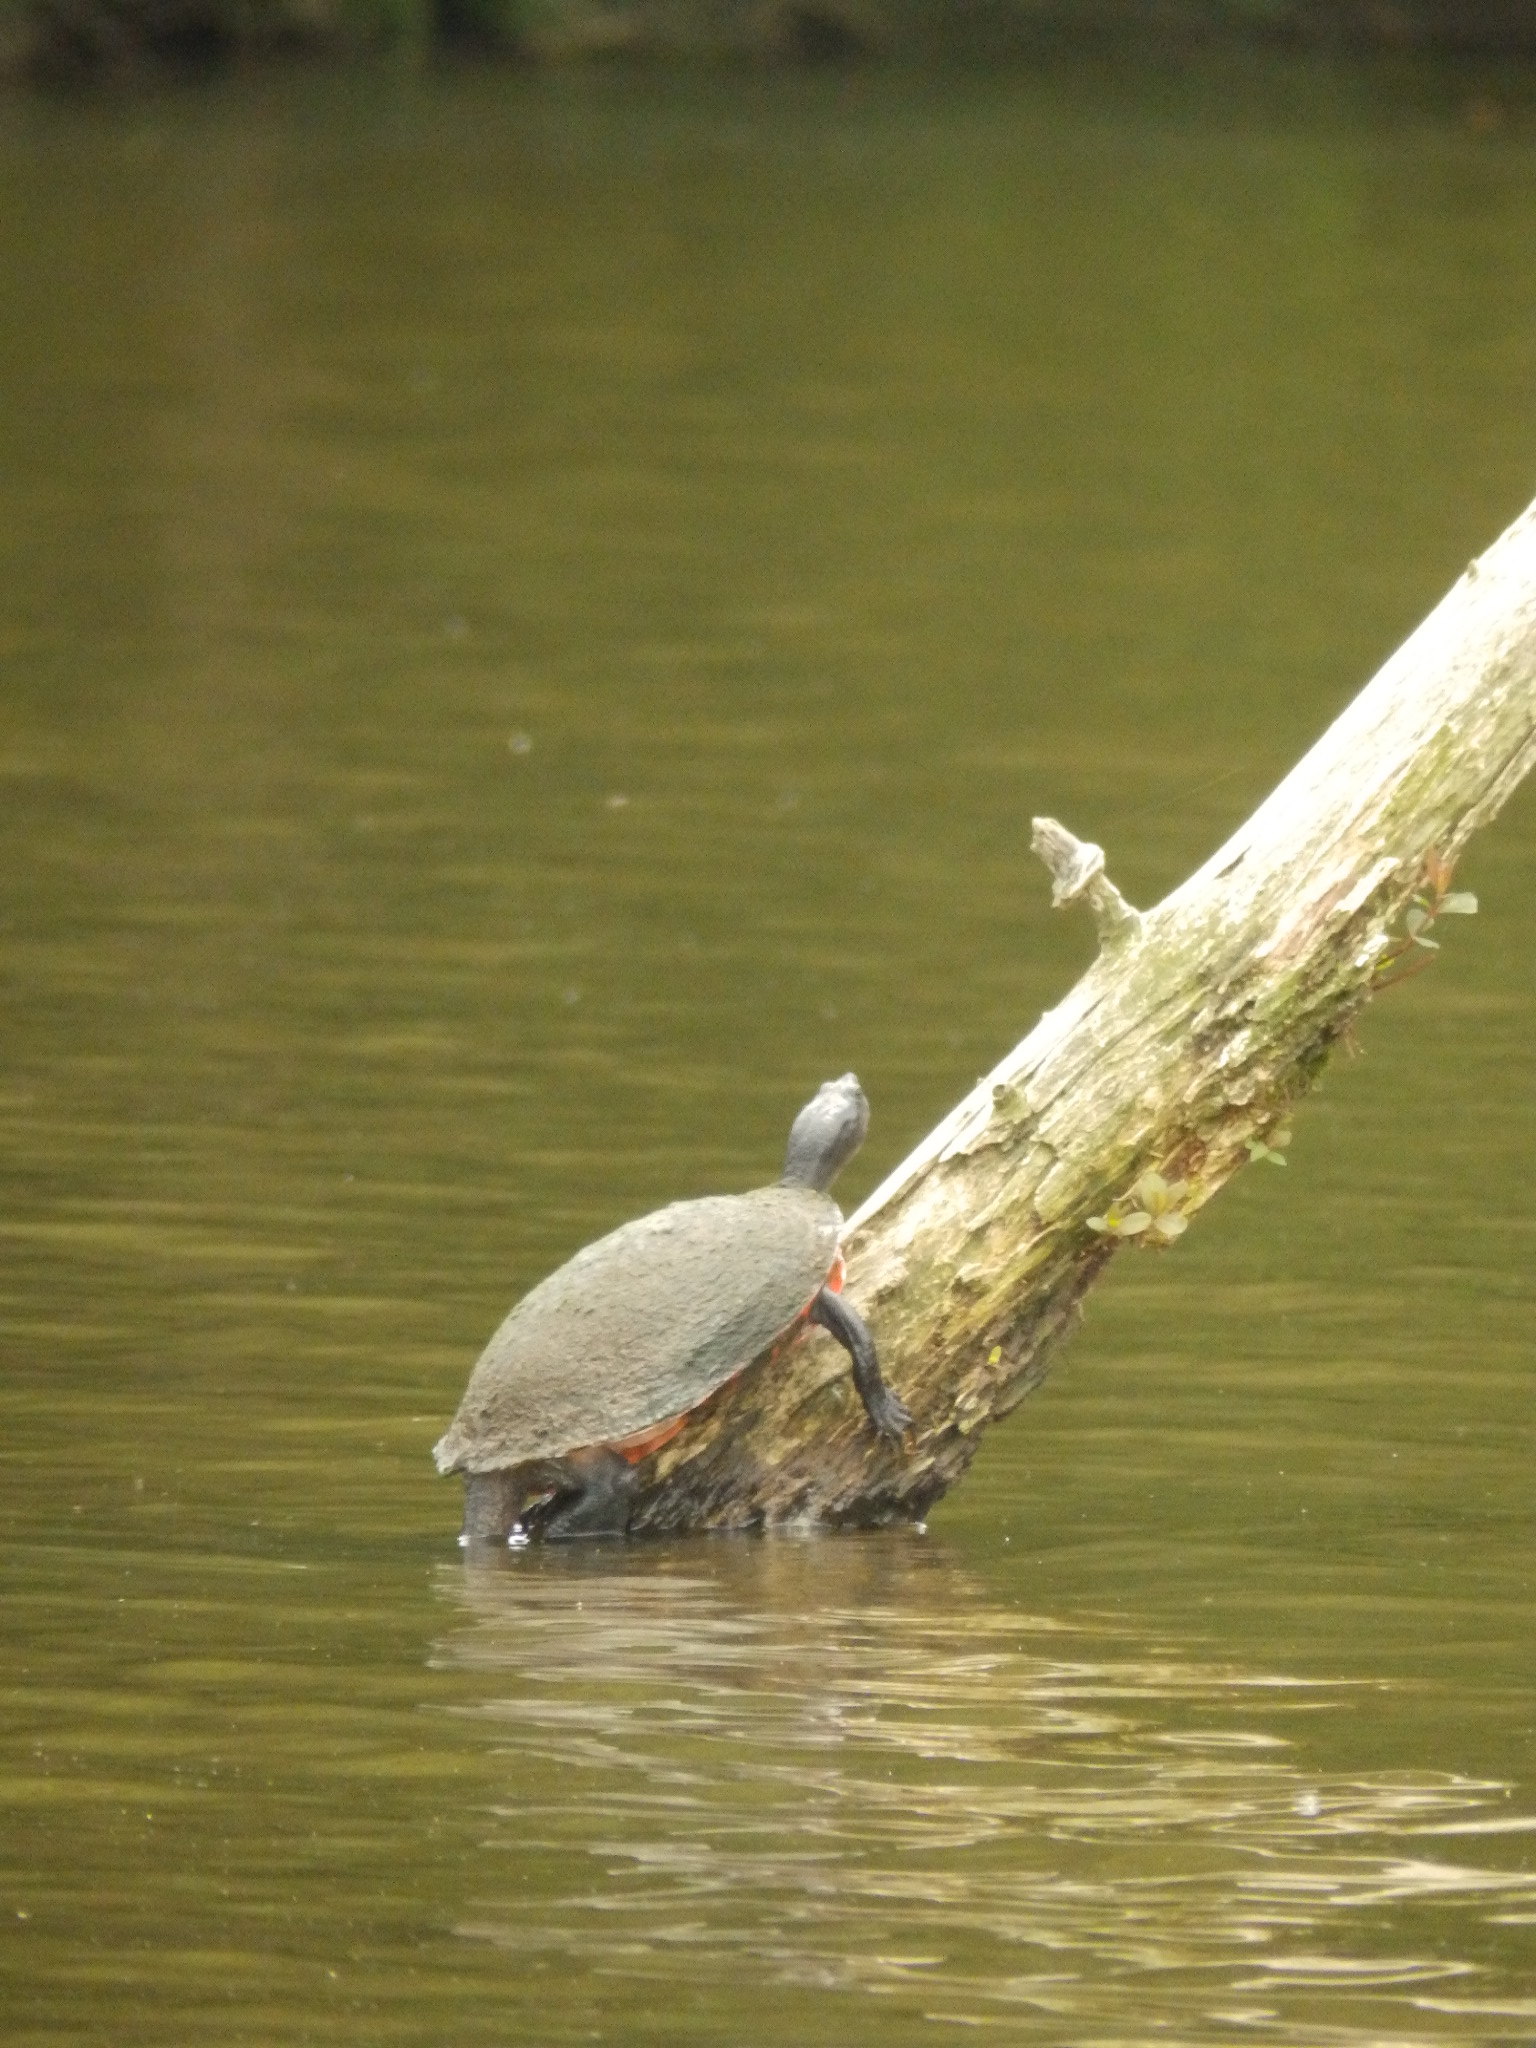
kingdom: Animalia
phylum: Chordata
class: Testudines
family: Emydidae
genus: Pseudemys
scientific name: Pseudemys rubriventris
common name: American red-bellied turtle
